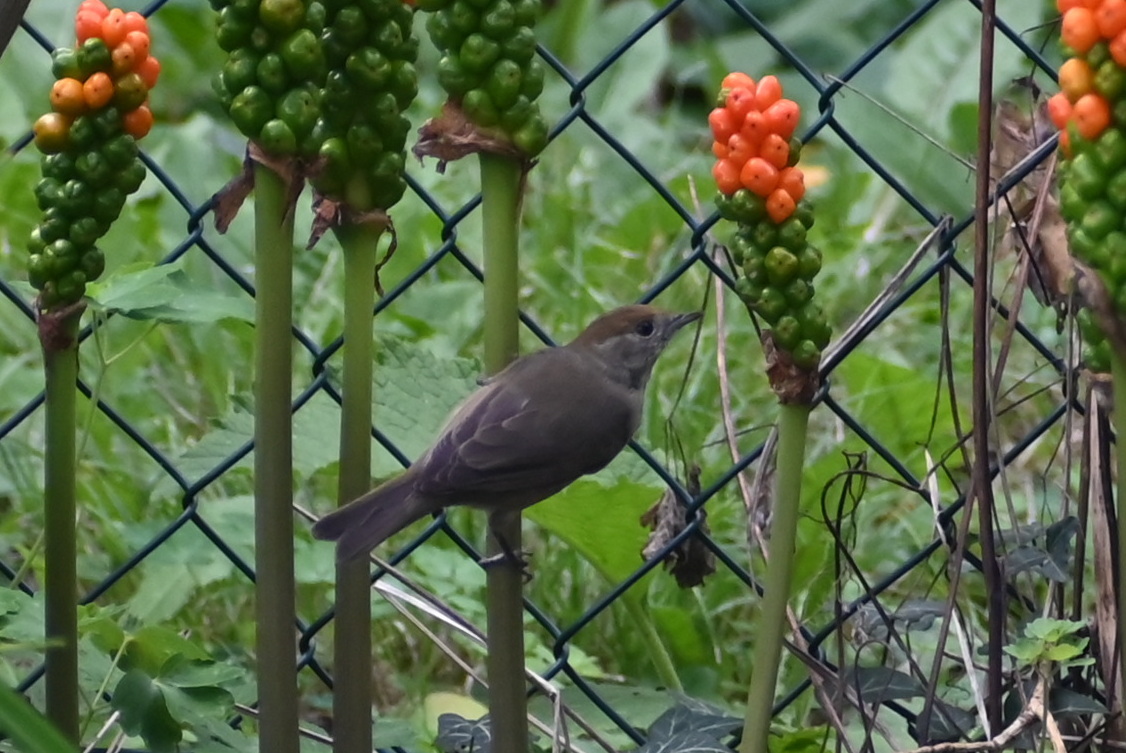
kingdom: Animalia
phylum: Chordata
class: Aves
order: Passeriformes
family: Sylviidae
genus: Sylvia
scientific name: Sylvia atricapilla
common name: Eurasian blackcap
